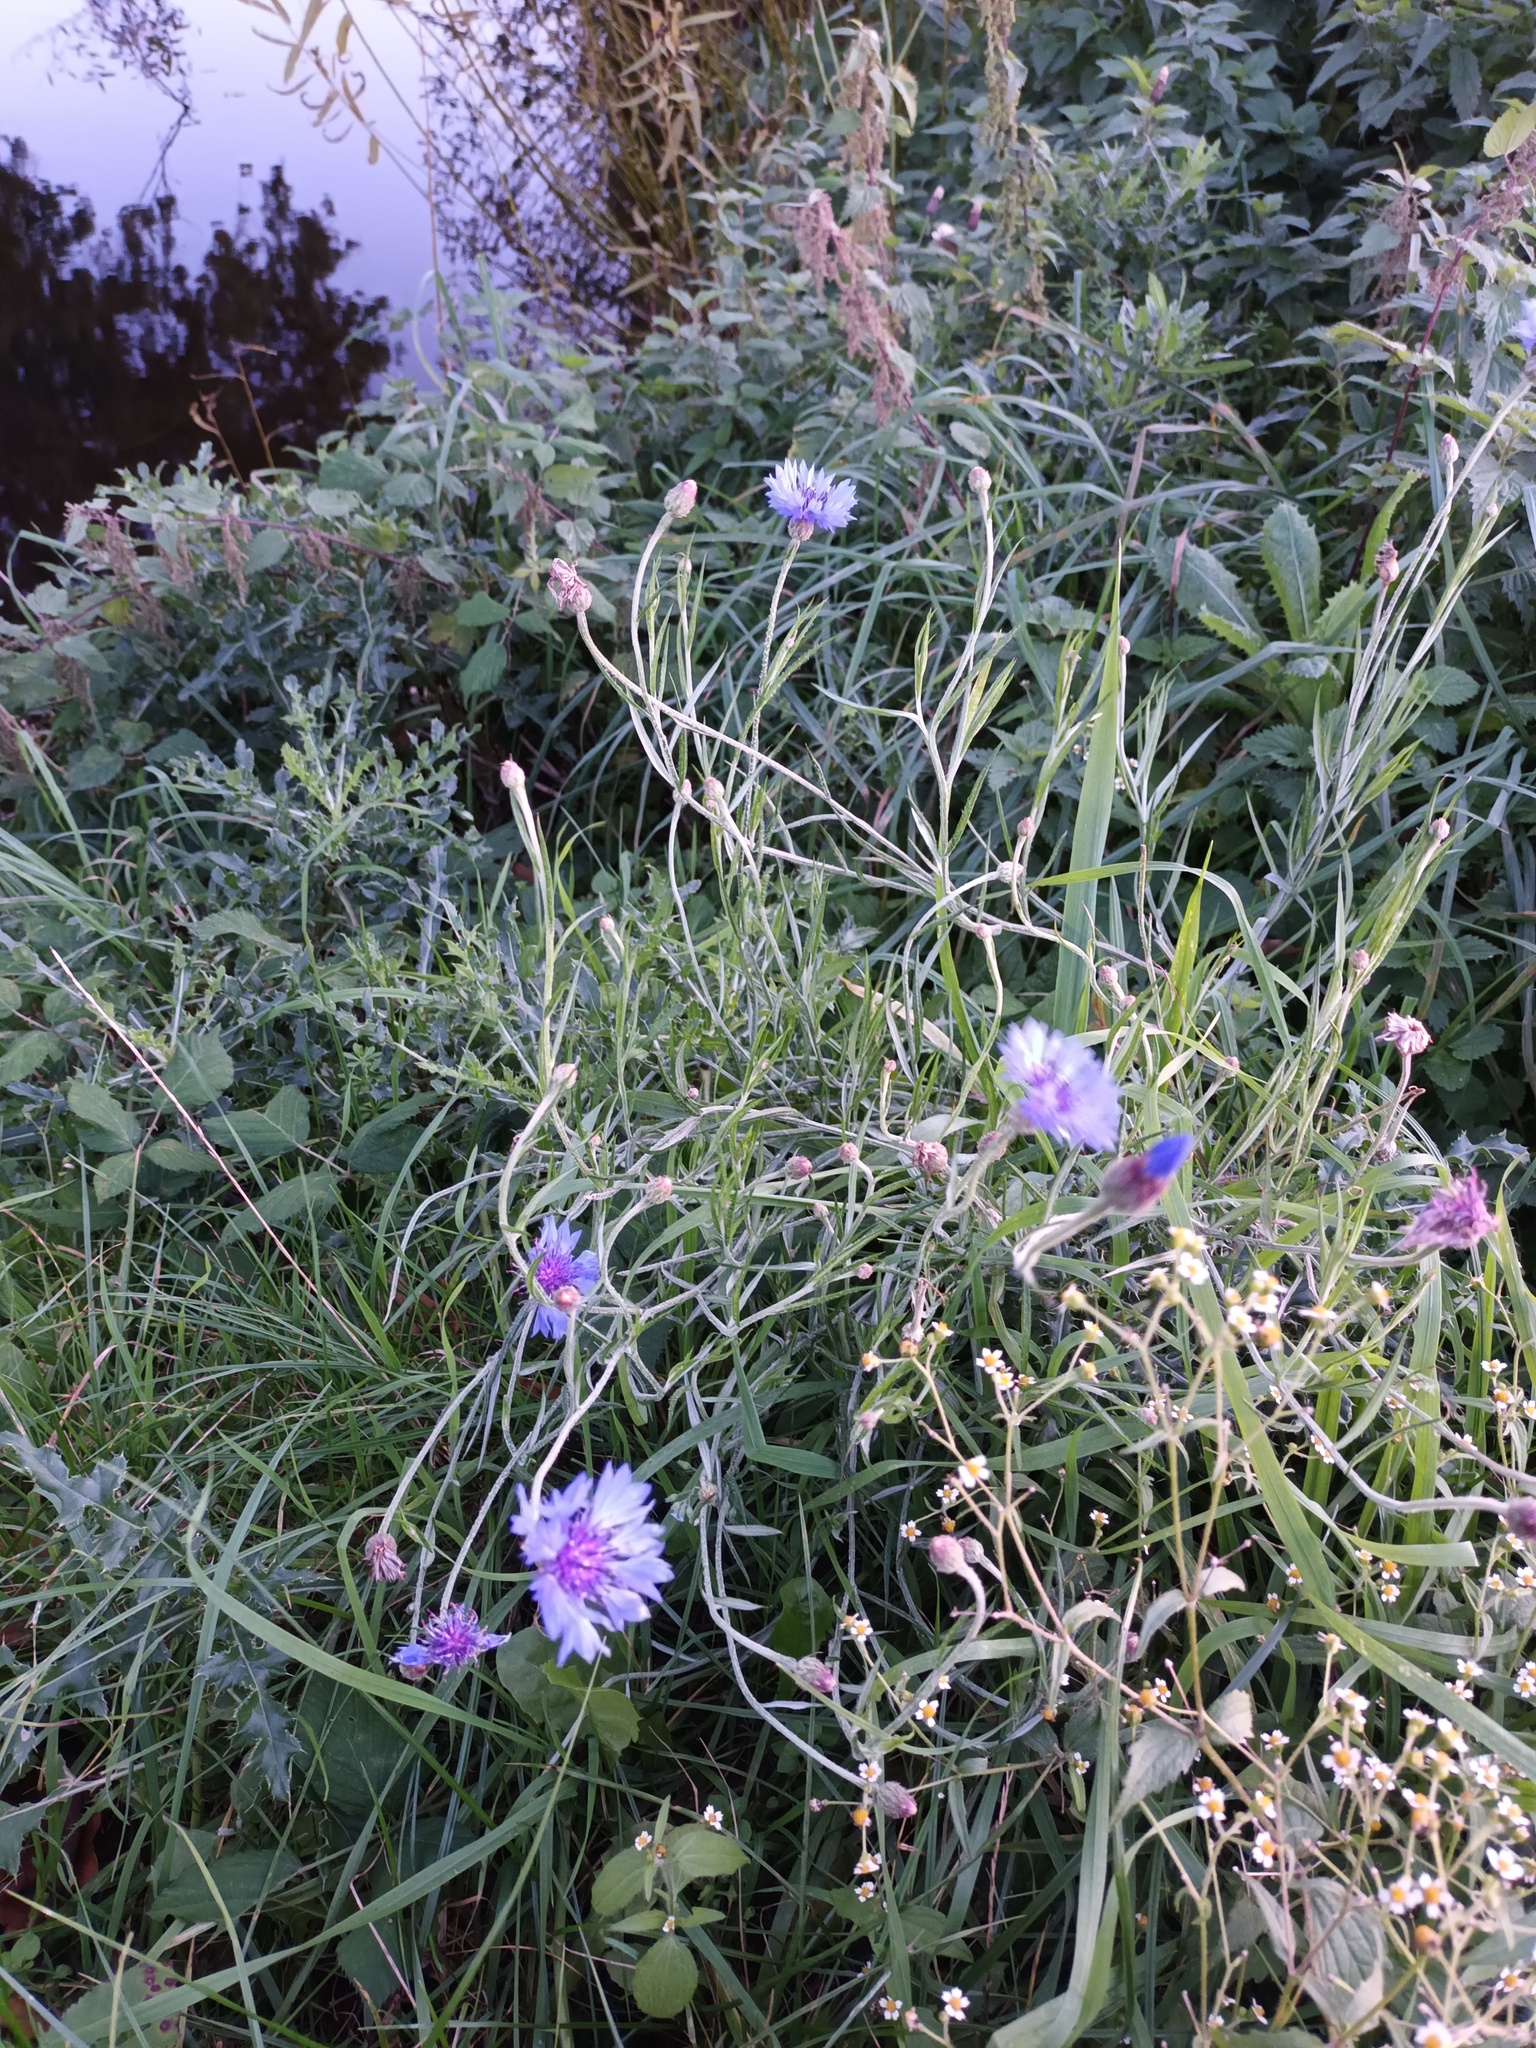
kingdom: Plantae
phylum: Tracheophyta
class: Magnoliopsida
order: Asterales
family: Asteraceae
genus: Centaurea
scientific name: Centaurea cyanus
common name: Cornflower
